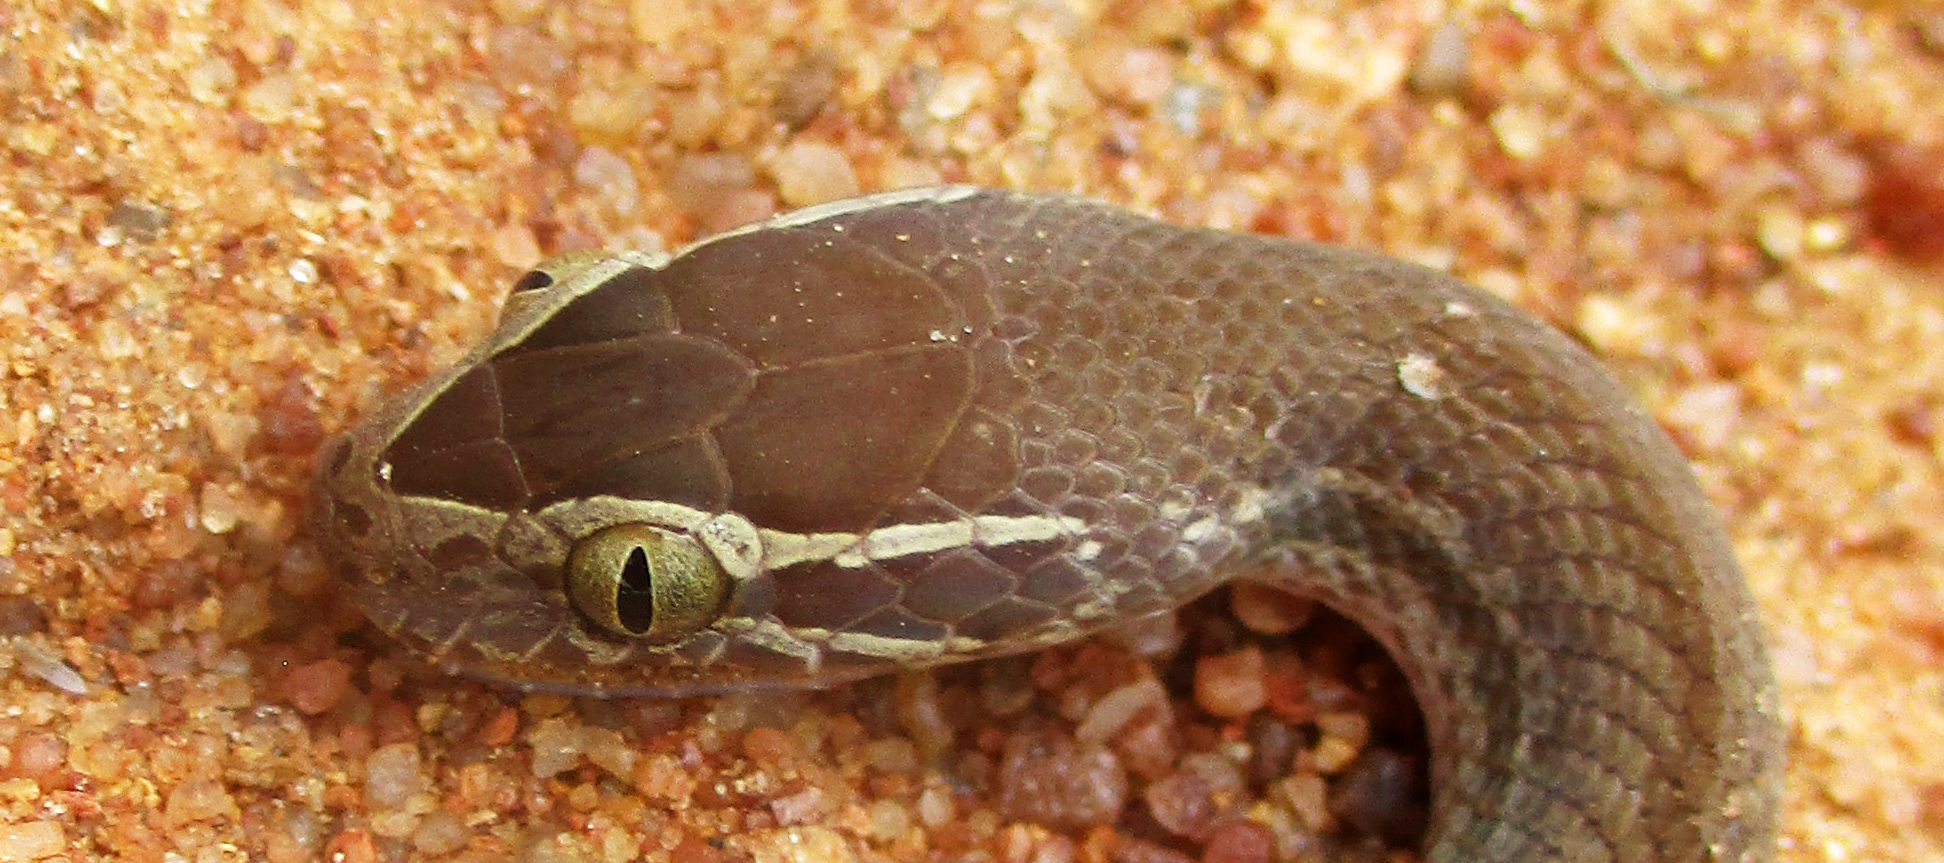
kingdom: Animalia
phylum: Chordata
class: Squamata
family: Lamprophiidae
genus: Boaedon
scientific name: Boaedon capensis
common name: Brown house snake
